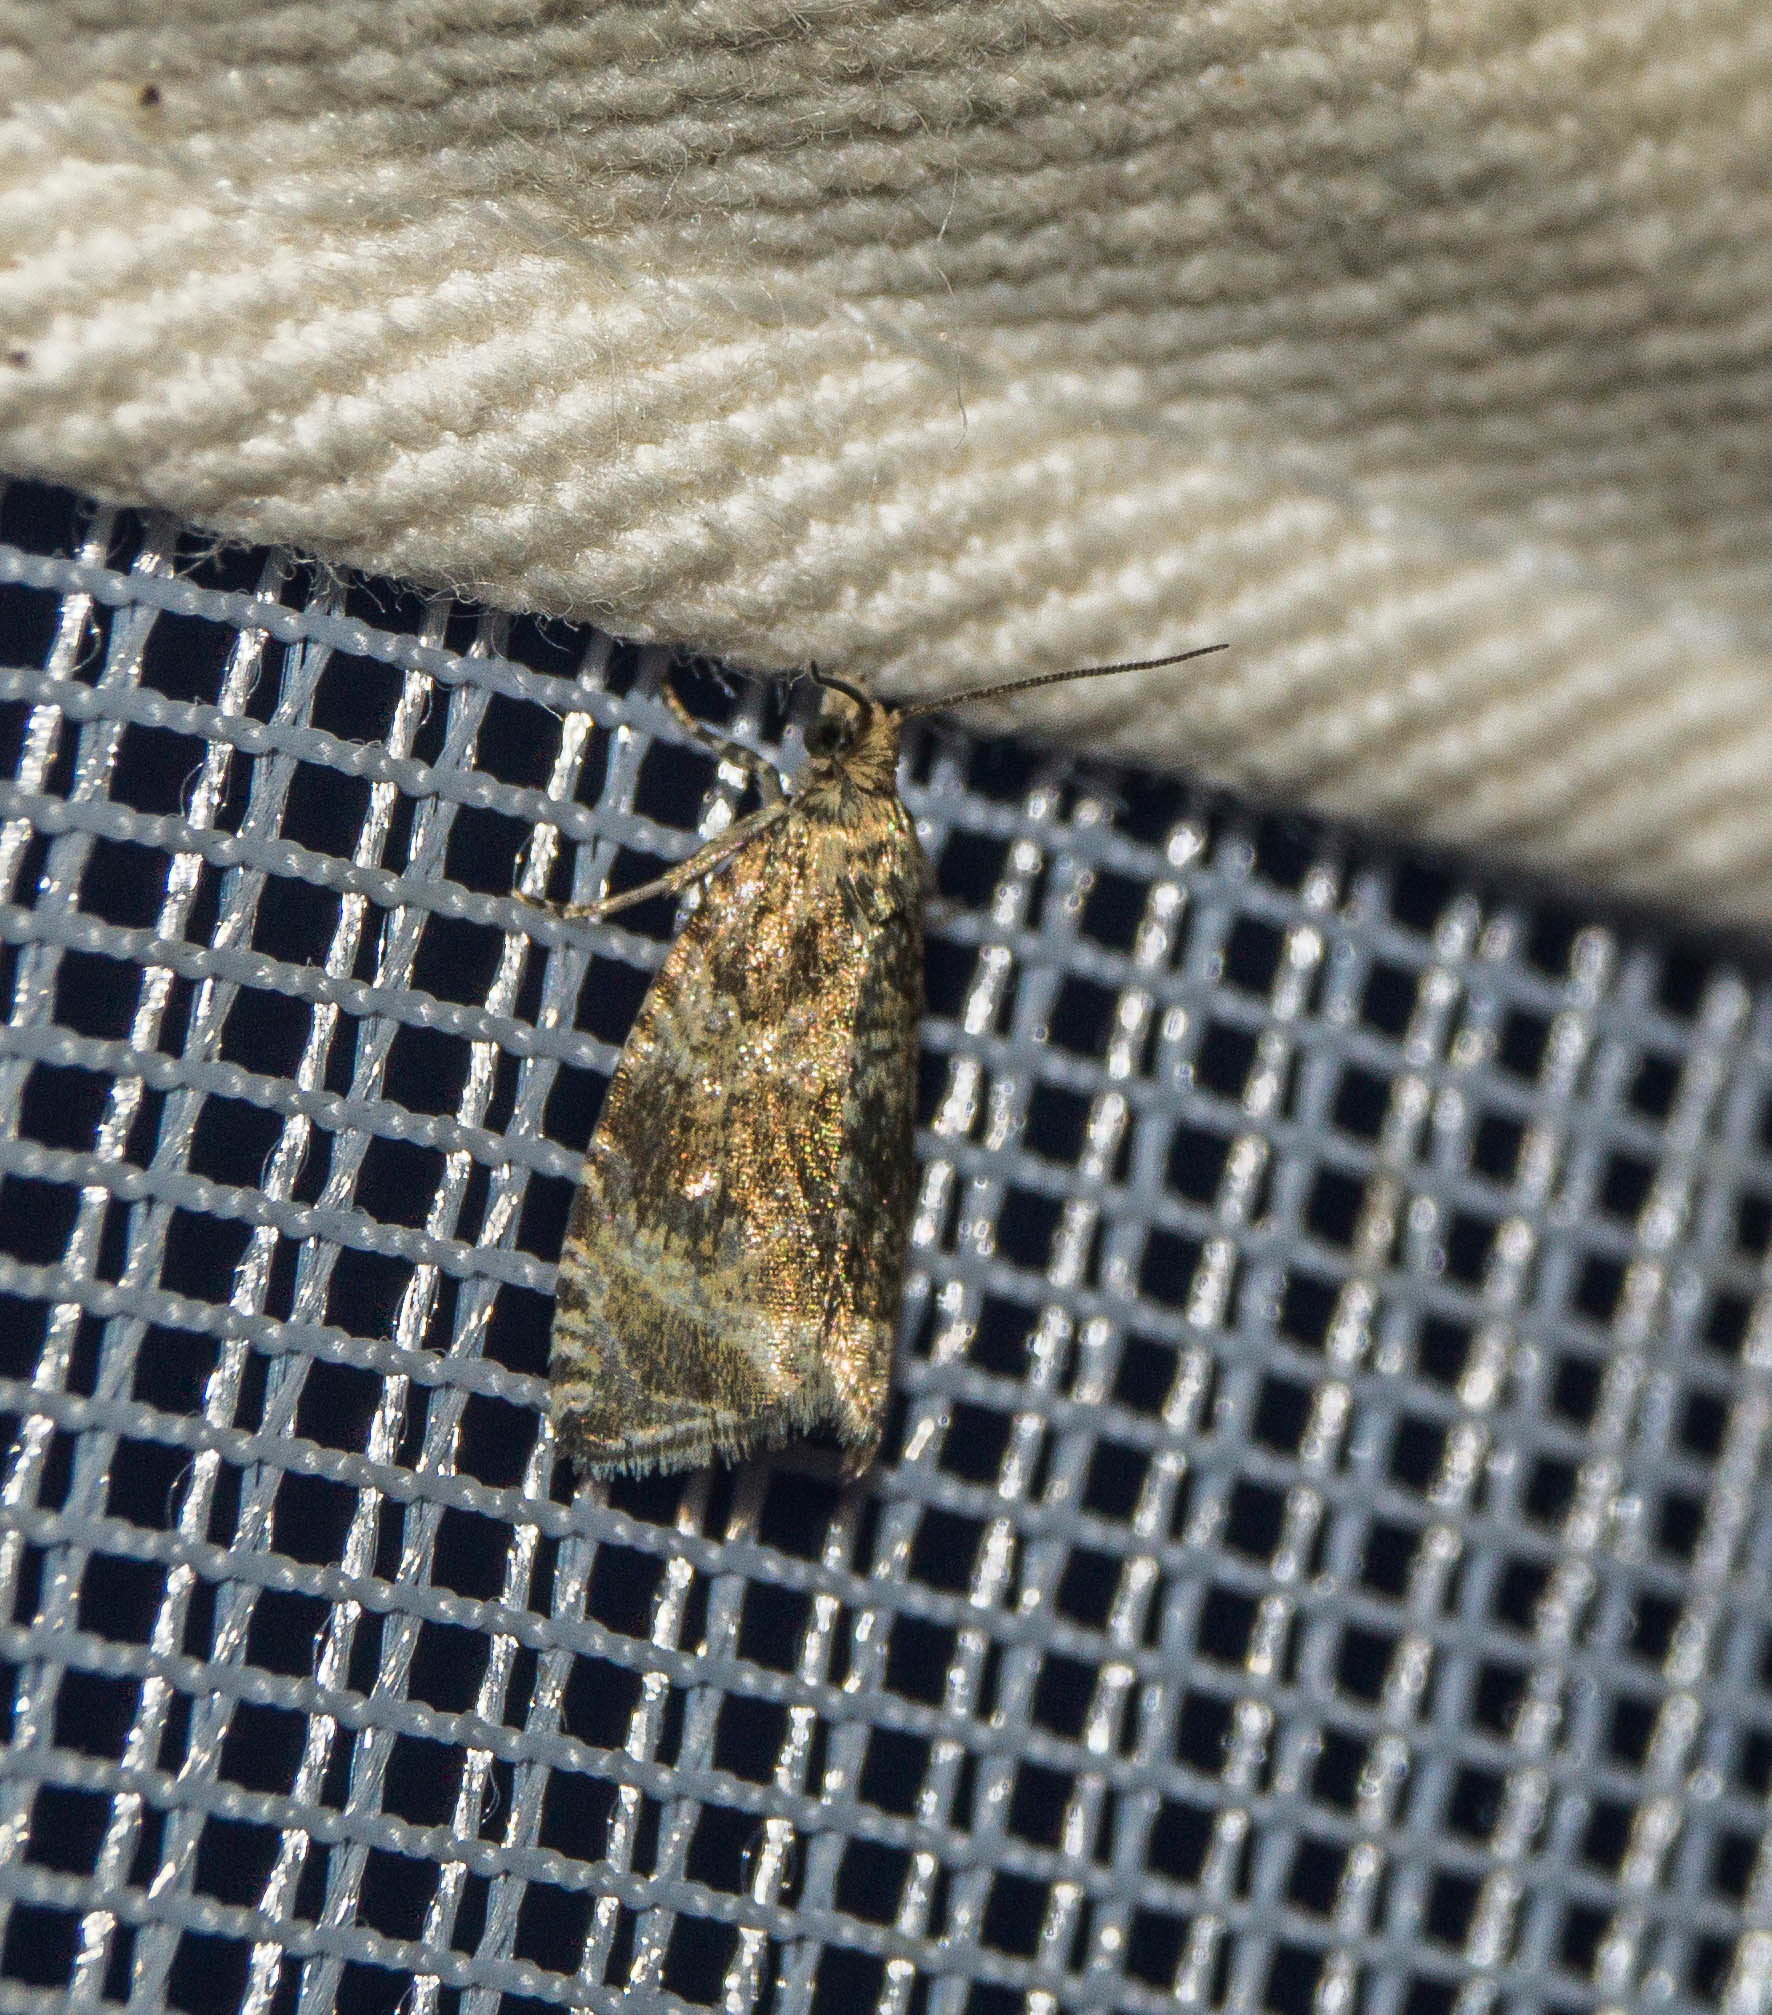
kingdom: Animalia
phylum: Arthropoda
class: Insecta
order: Lepidoptera
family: Tortricidae
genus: Syricoris
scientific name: Syricoris lacunana
